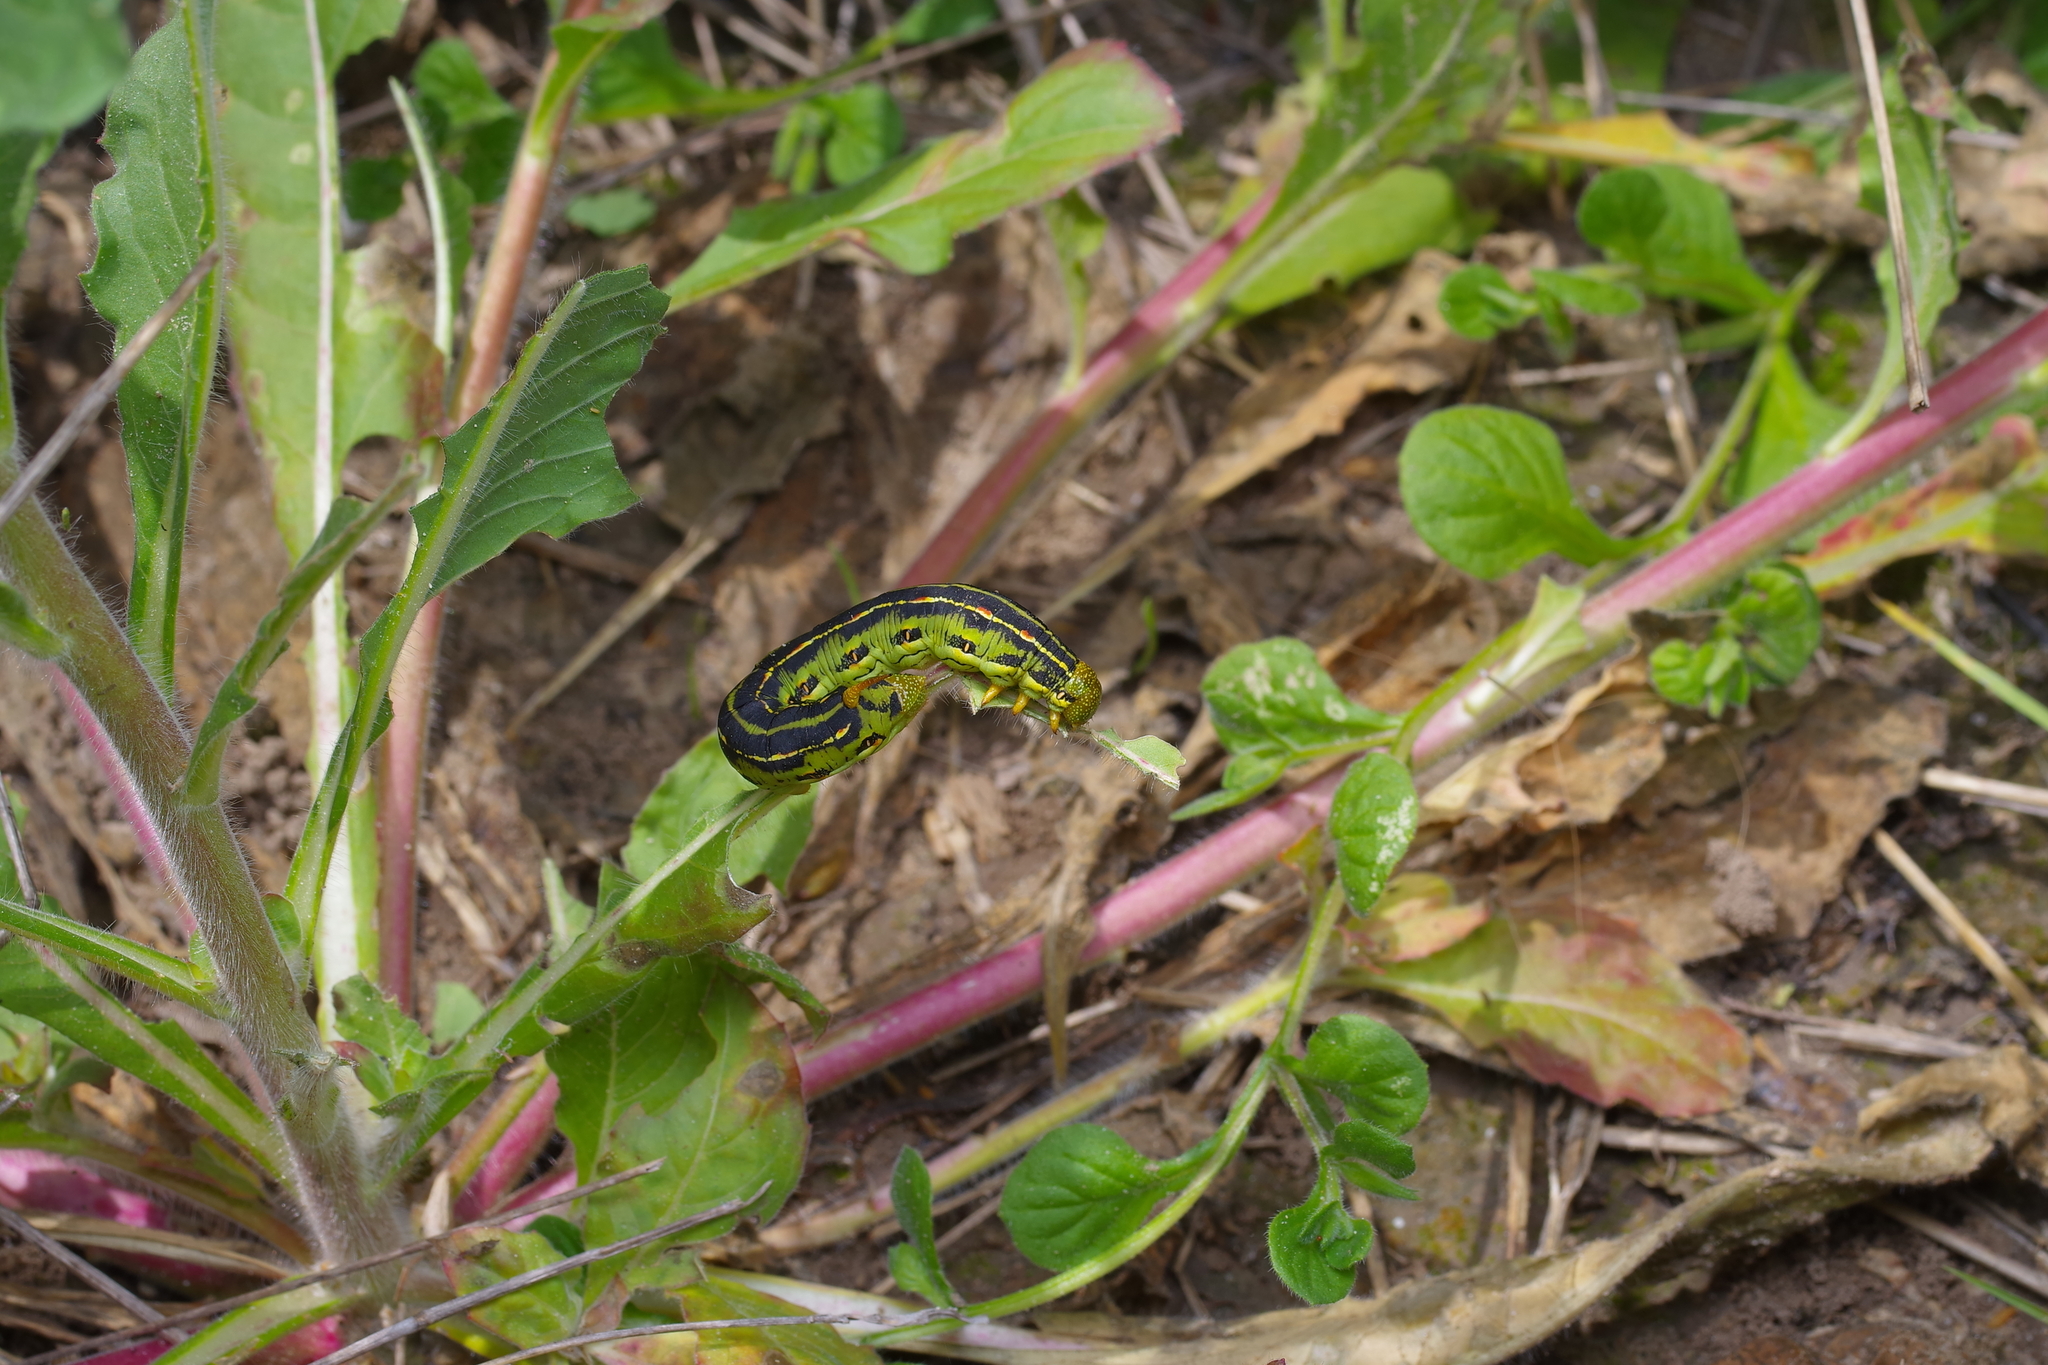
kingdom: Animalia
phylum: Arthropoda
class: Insecta
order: Lepidoptera
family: Sphingidae
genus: Hyles
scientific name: Hyles lineata
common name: White-lined sphinx
